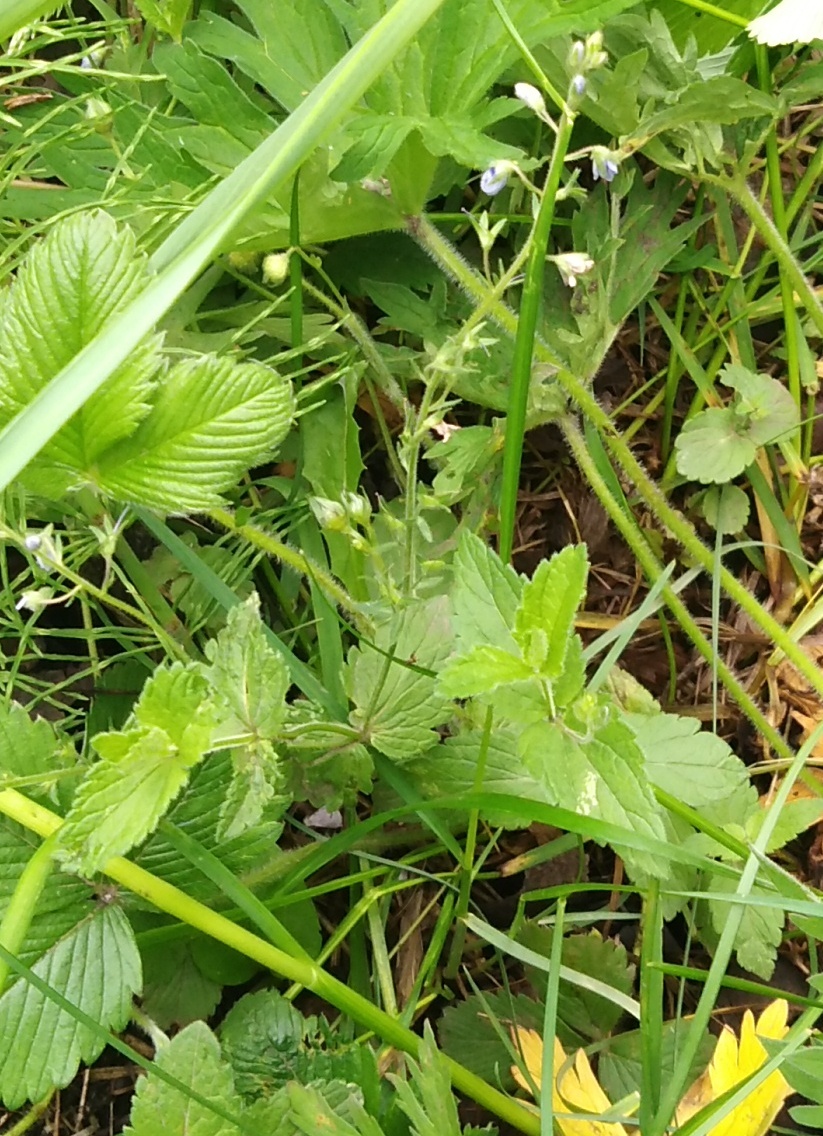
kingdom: Plantae
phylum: Tracheophyta
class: Magnoliopsida
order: Lamiales
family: Plantaginaceae
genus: Veronica
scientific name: Veronica chamaedrys
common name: Germander speedwell
